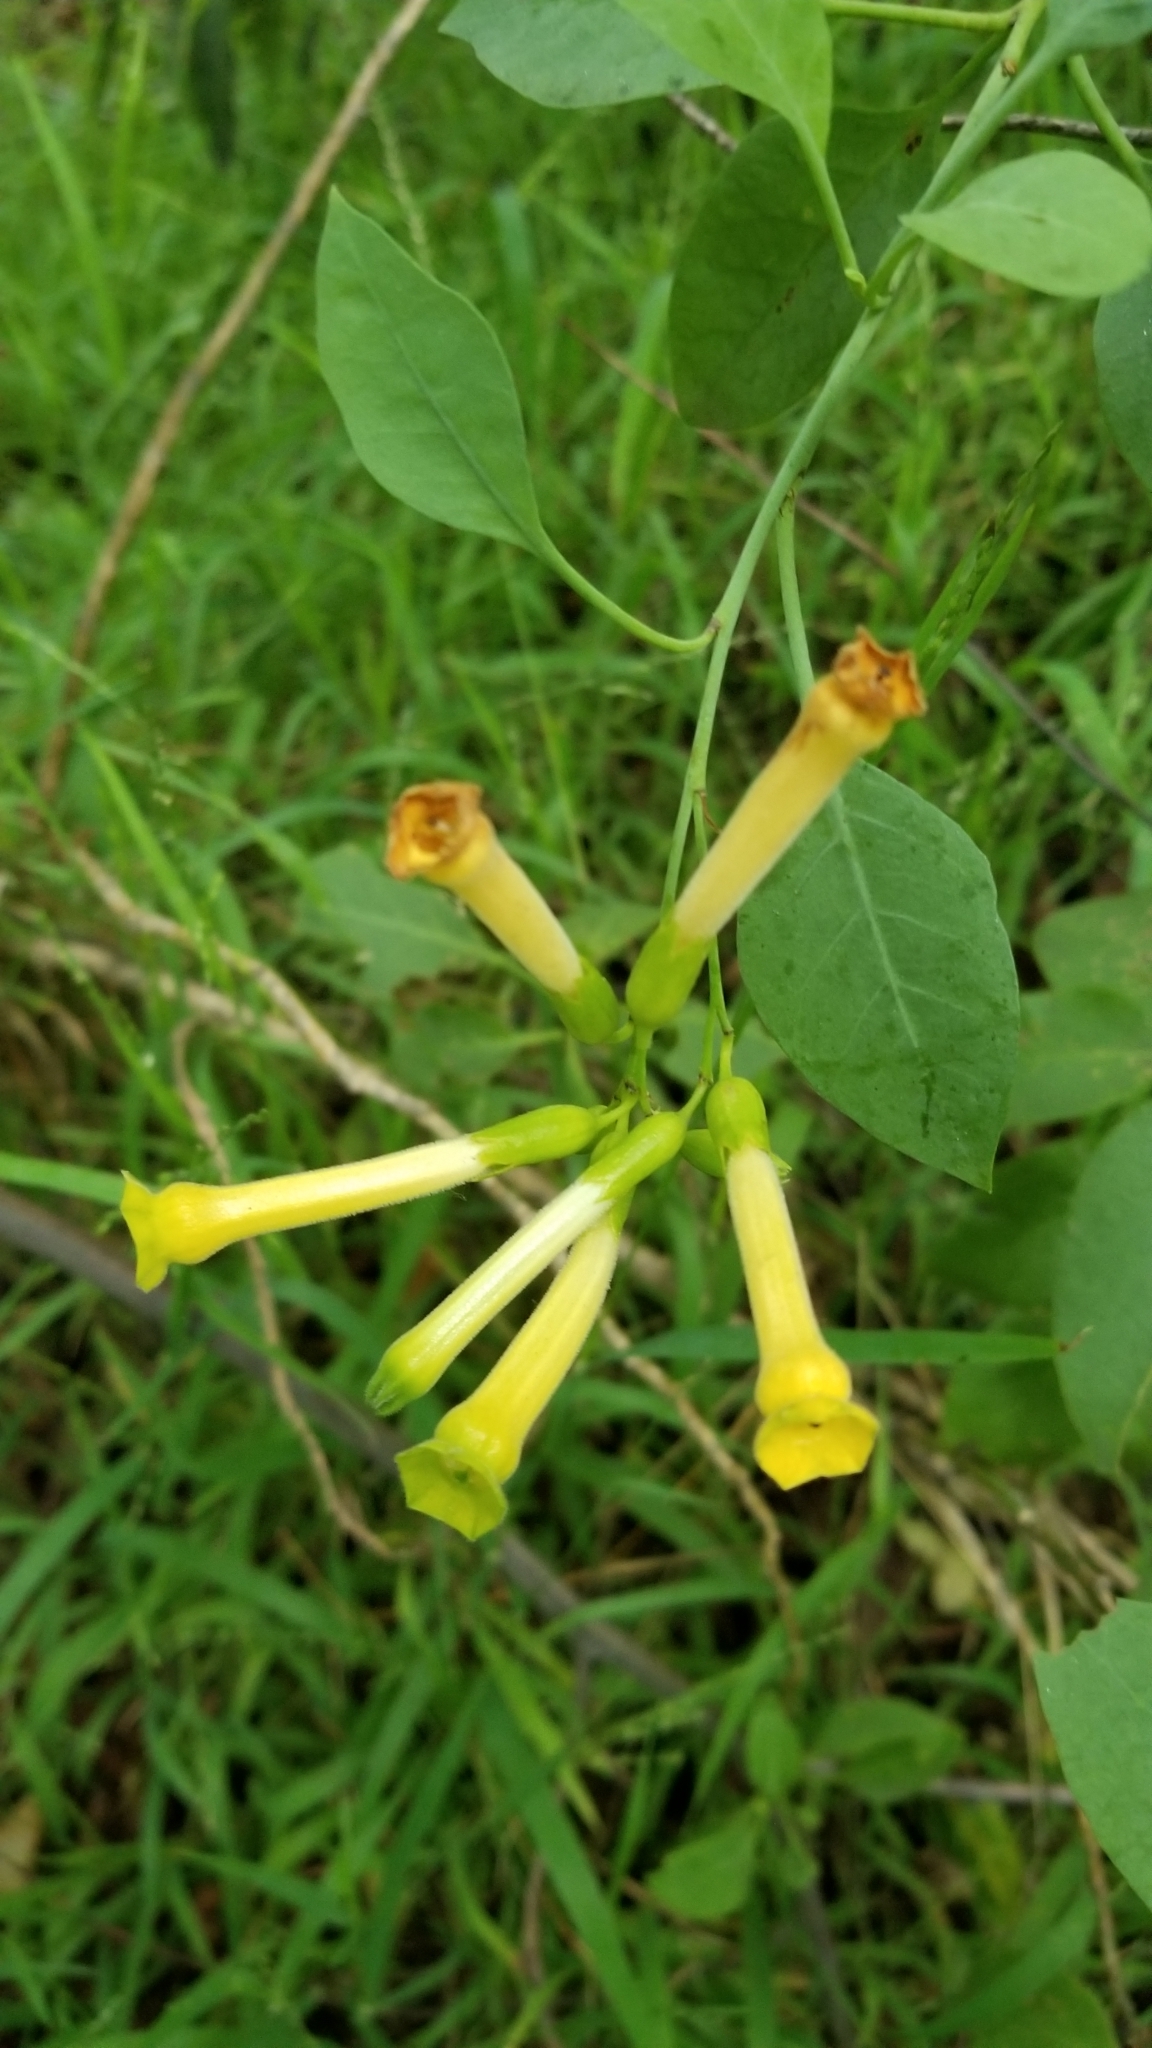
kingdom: Plantae
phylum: Tracheophyta
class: Magnoliopsida
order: Solanales
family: Solanaceae
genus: Nicotiana
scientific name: Nicotiana glauca
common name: Tree tobacco
